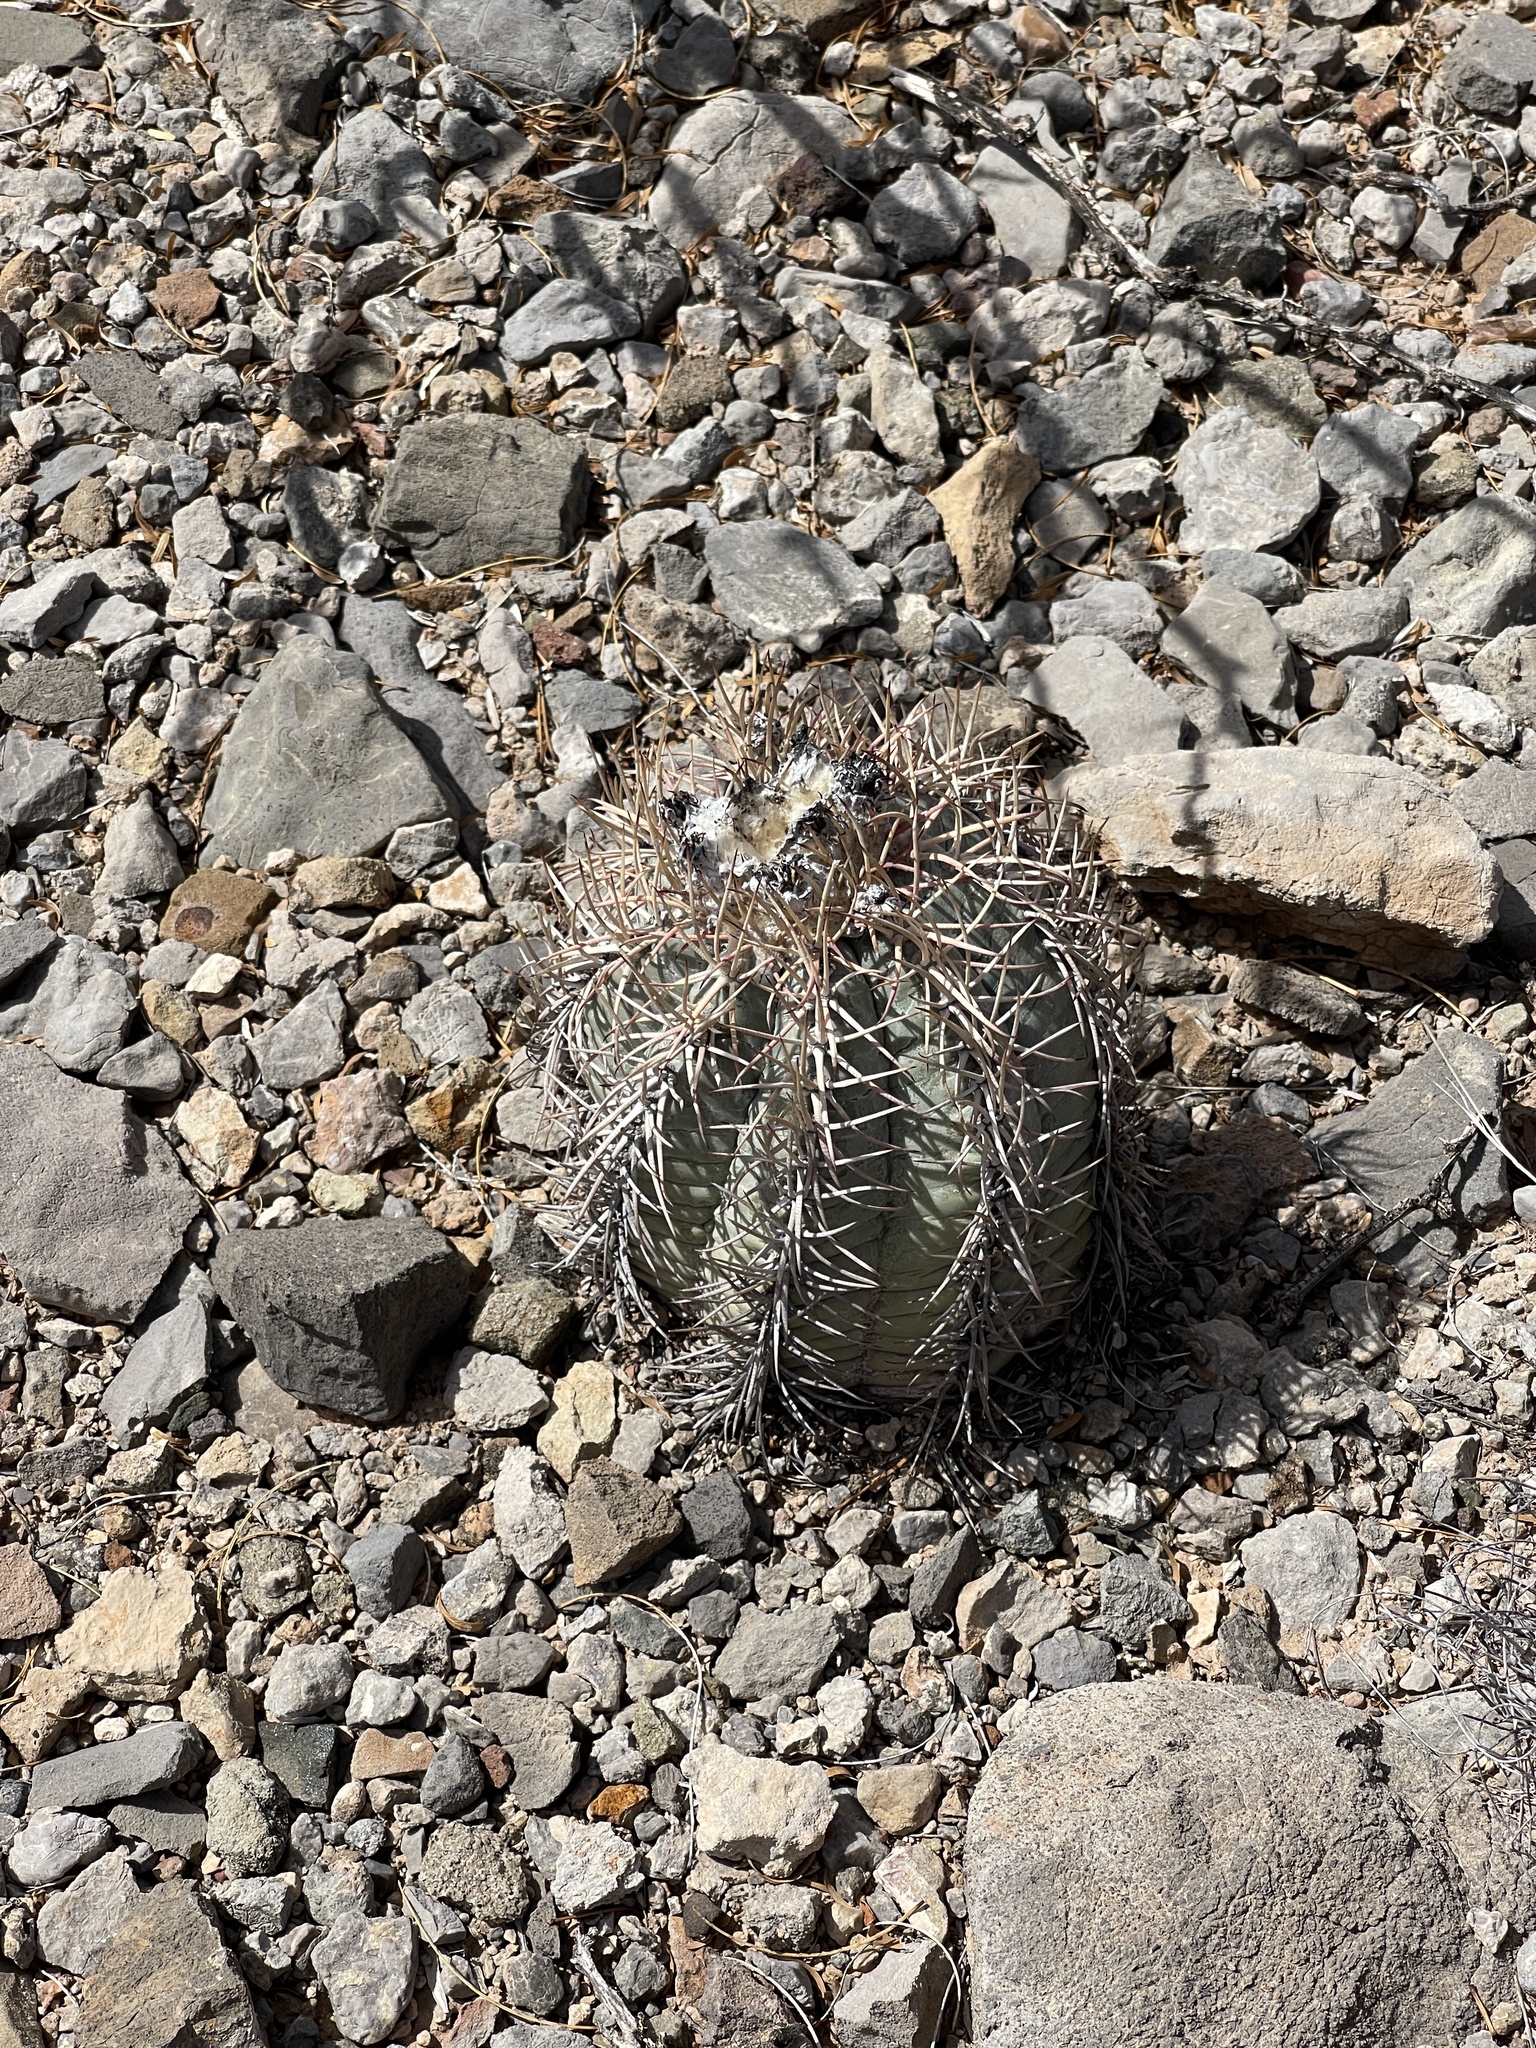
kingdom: Plantae
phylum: Tracheophyta
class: Magnoliopsida
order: Caryophyllales
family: Cactaceae
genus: Echinocactus
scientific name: Echinocactus horizonthalonius
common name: Devilshead
